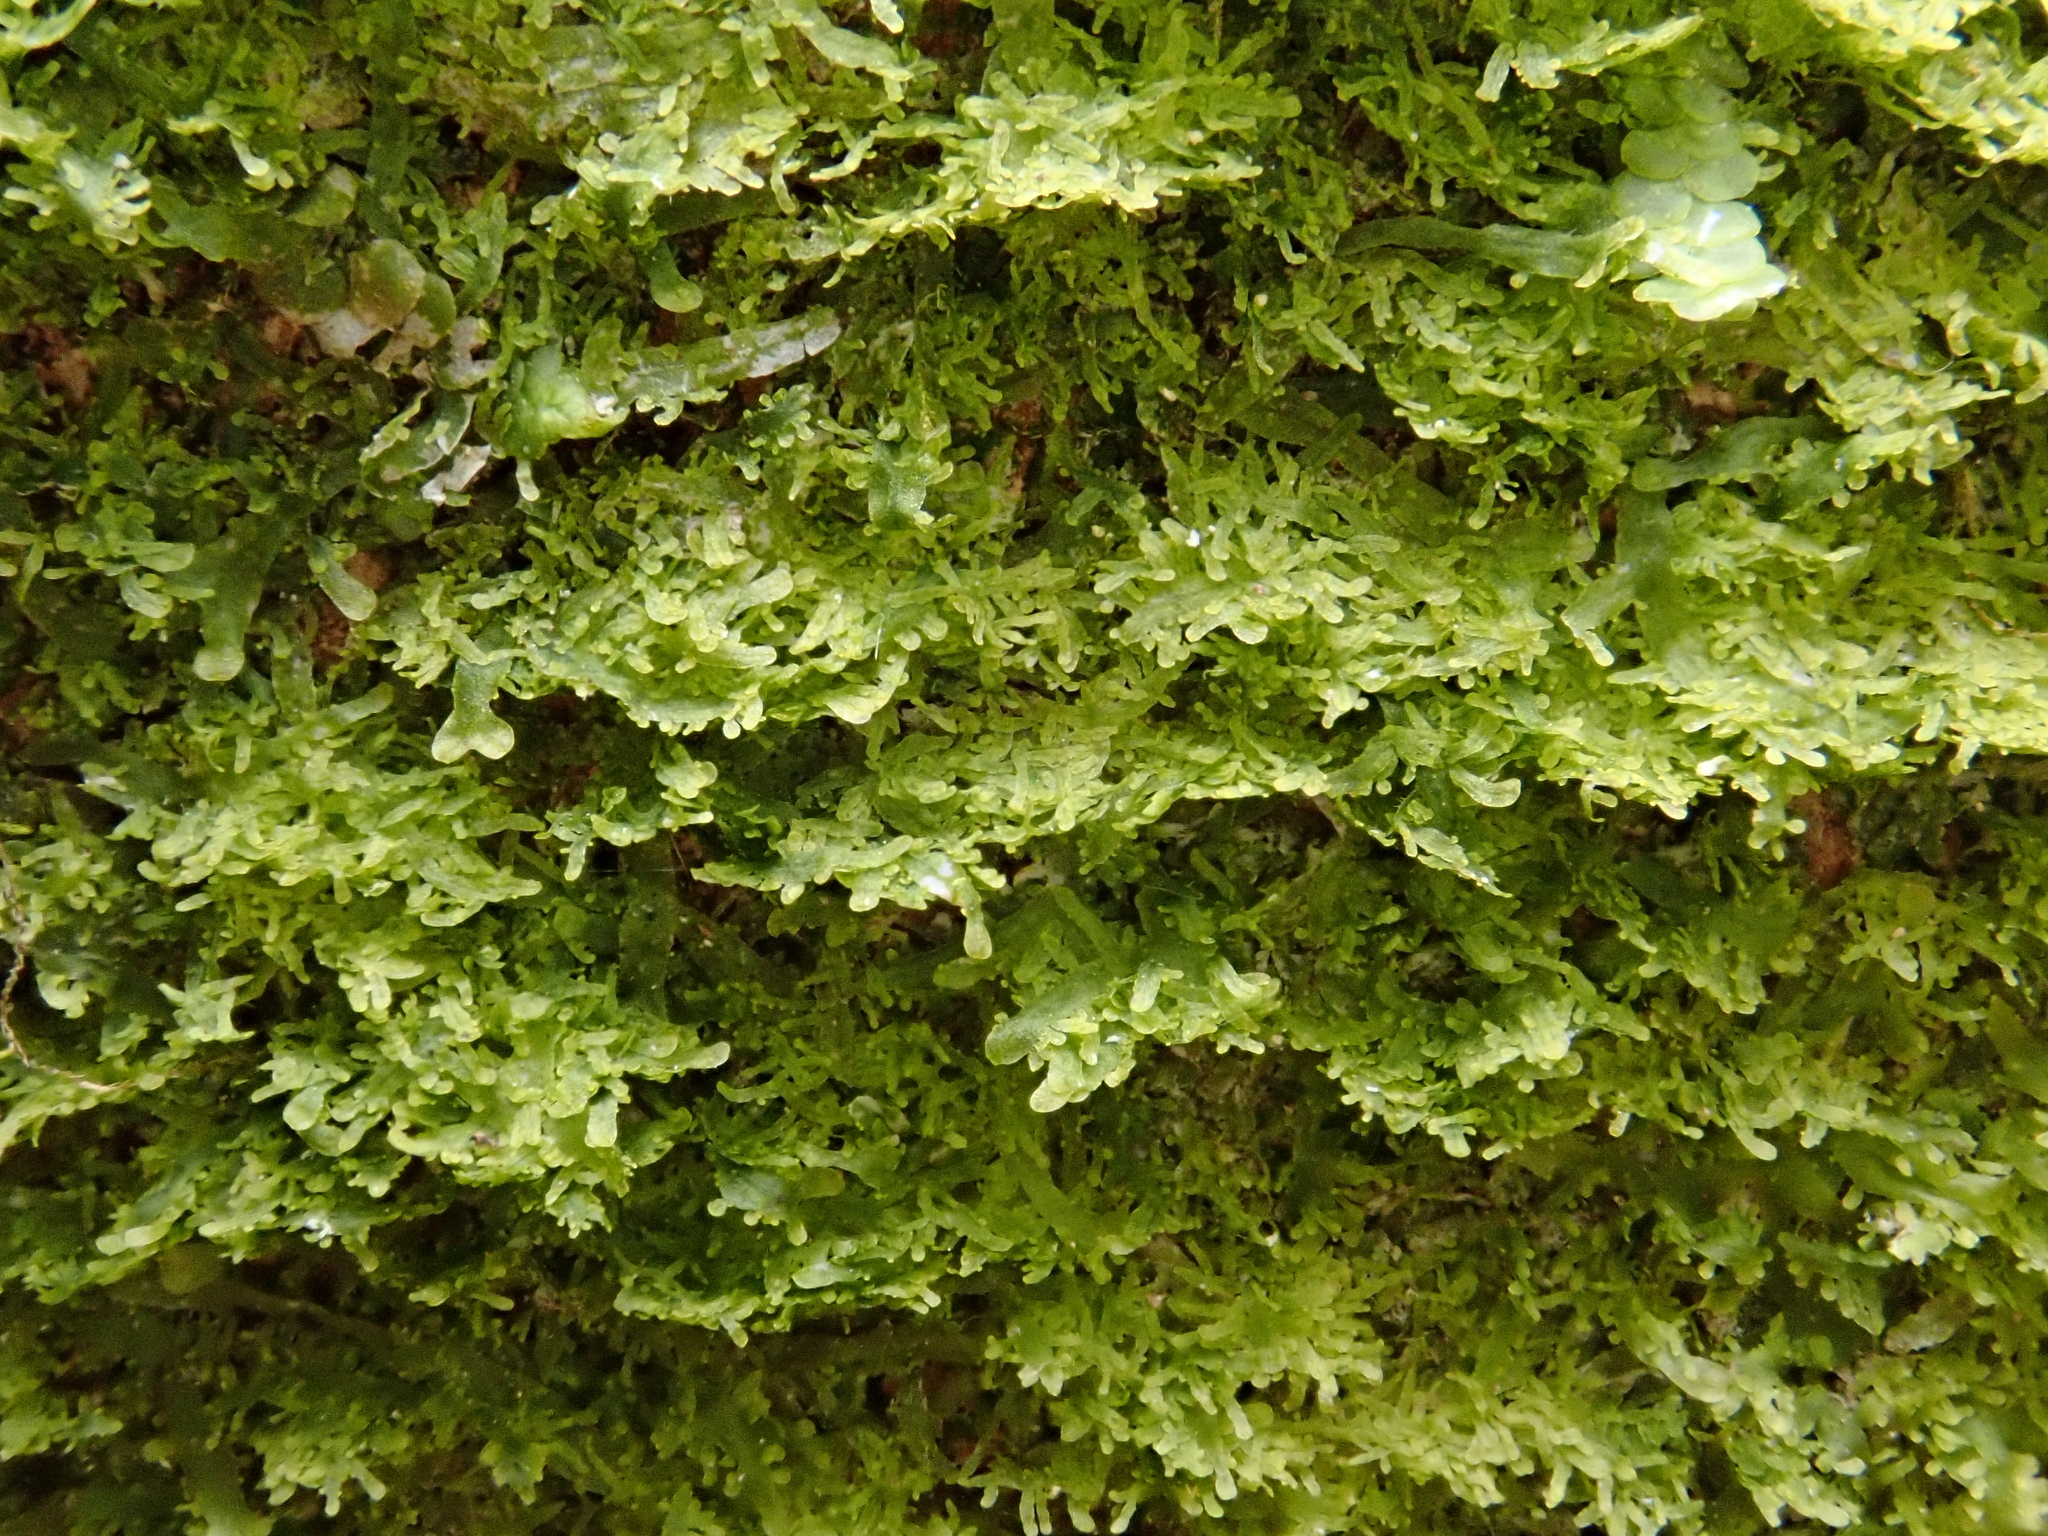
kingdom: Plantae
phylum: Marchantiophyta
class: Jungermanniopsida
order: Metzgeriales
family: Metzgeriaceae
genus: Metzgeria
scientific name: Metzgeria conjugata
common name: Rock veilwort
